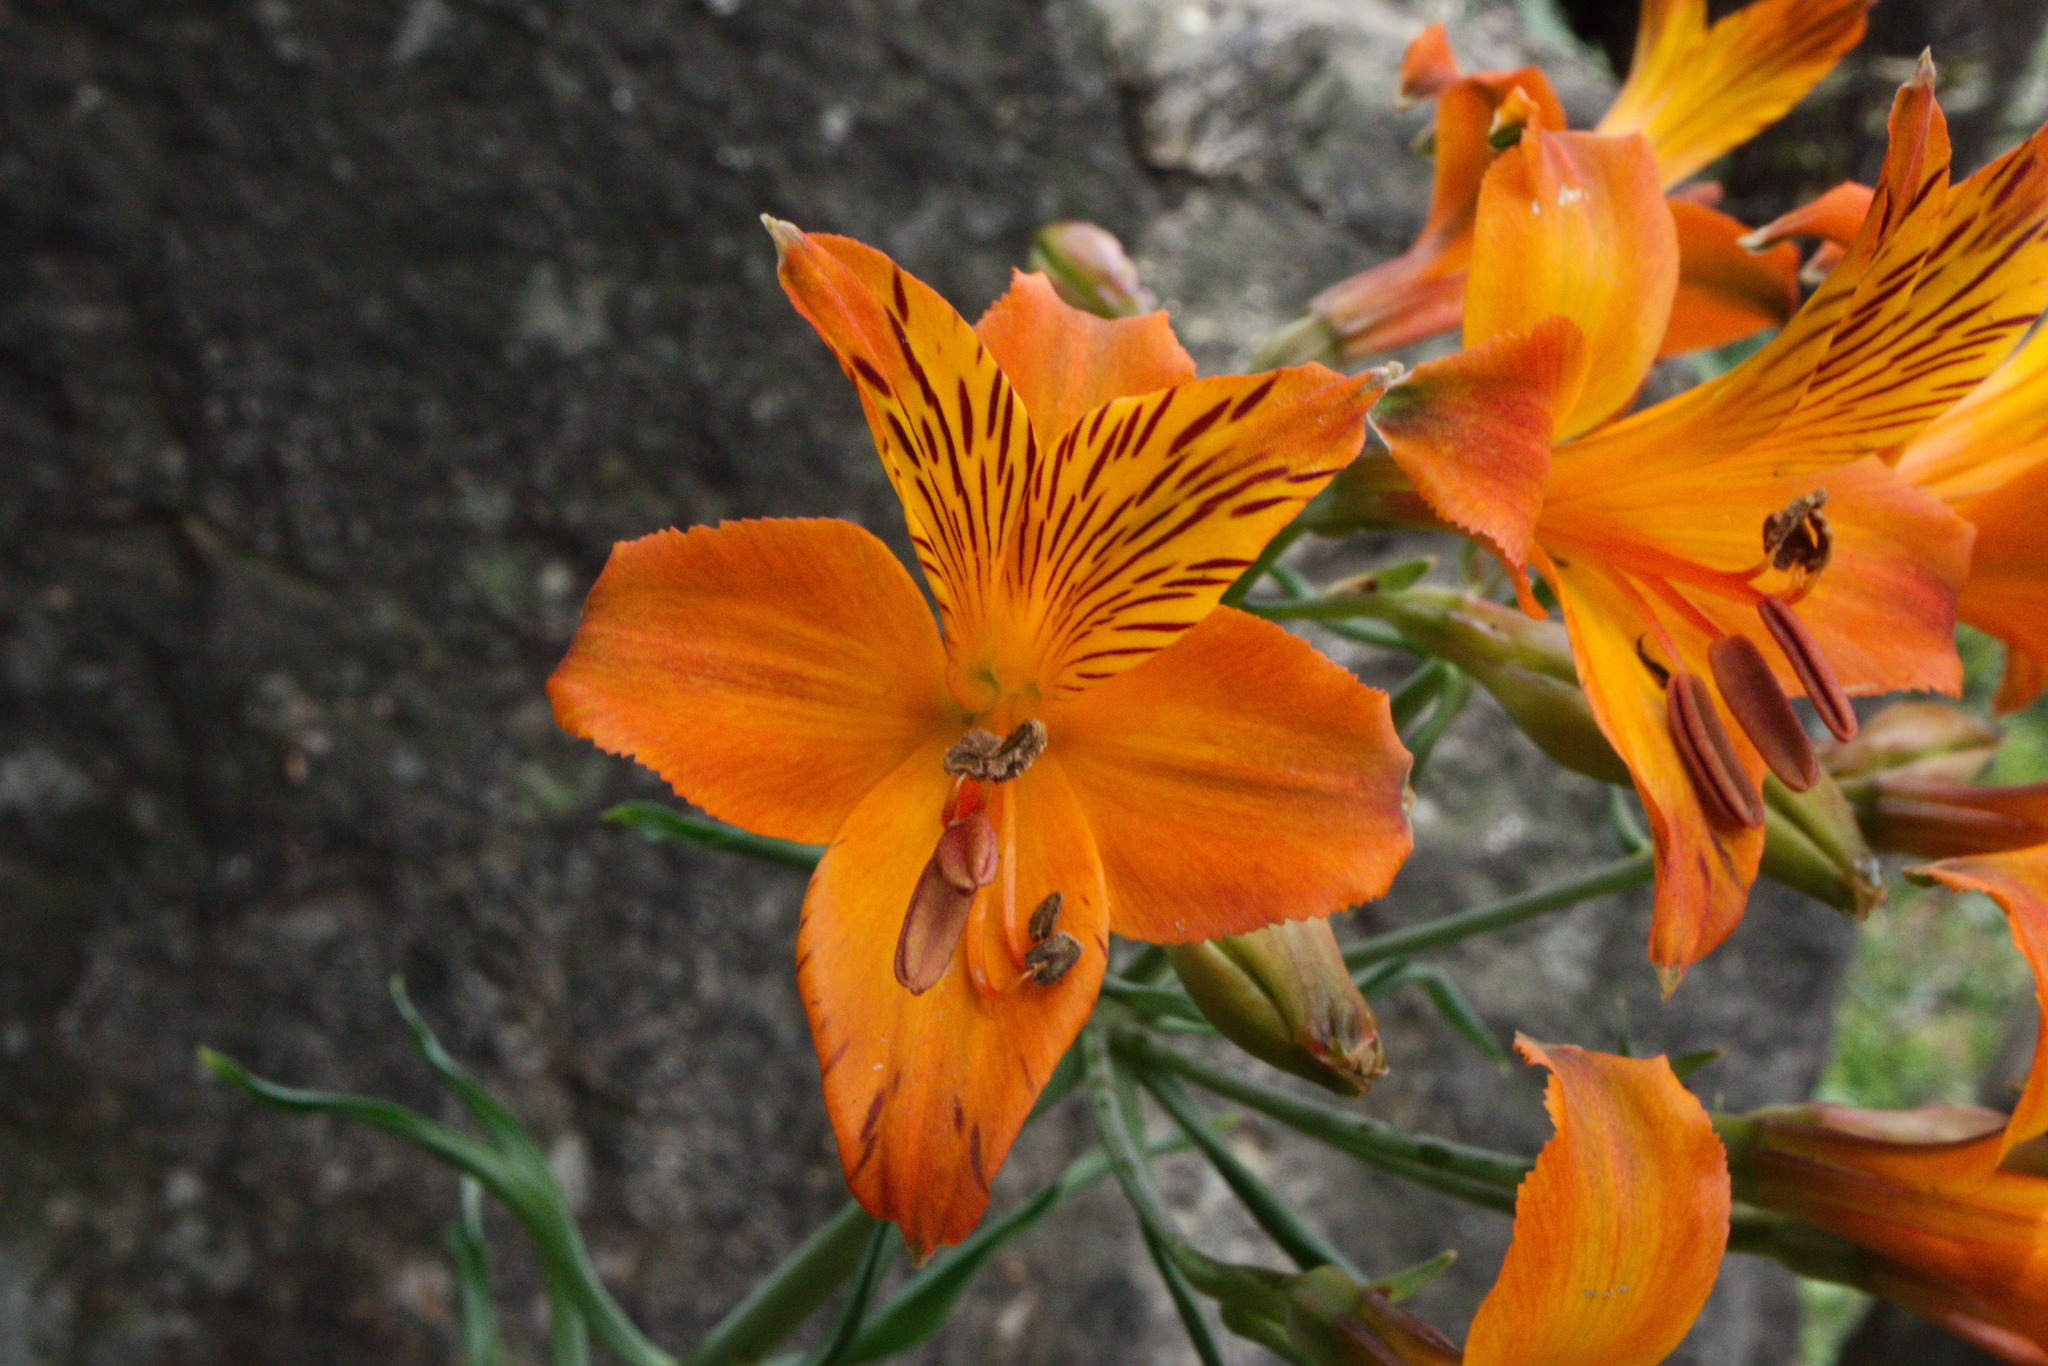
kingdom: Plantae
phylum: Tracheophyta
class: Liliopsida
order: Liliales
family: Alstroemeriaceae
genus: Alstroemeria
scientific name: Alstroemeria ligtu
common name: St. martin's-flower
